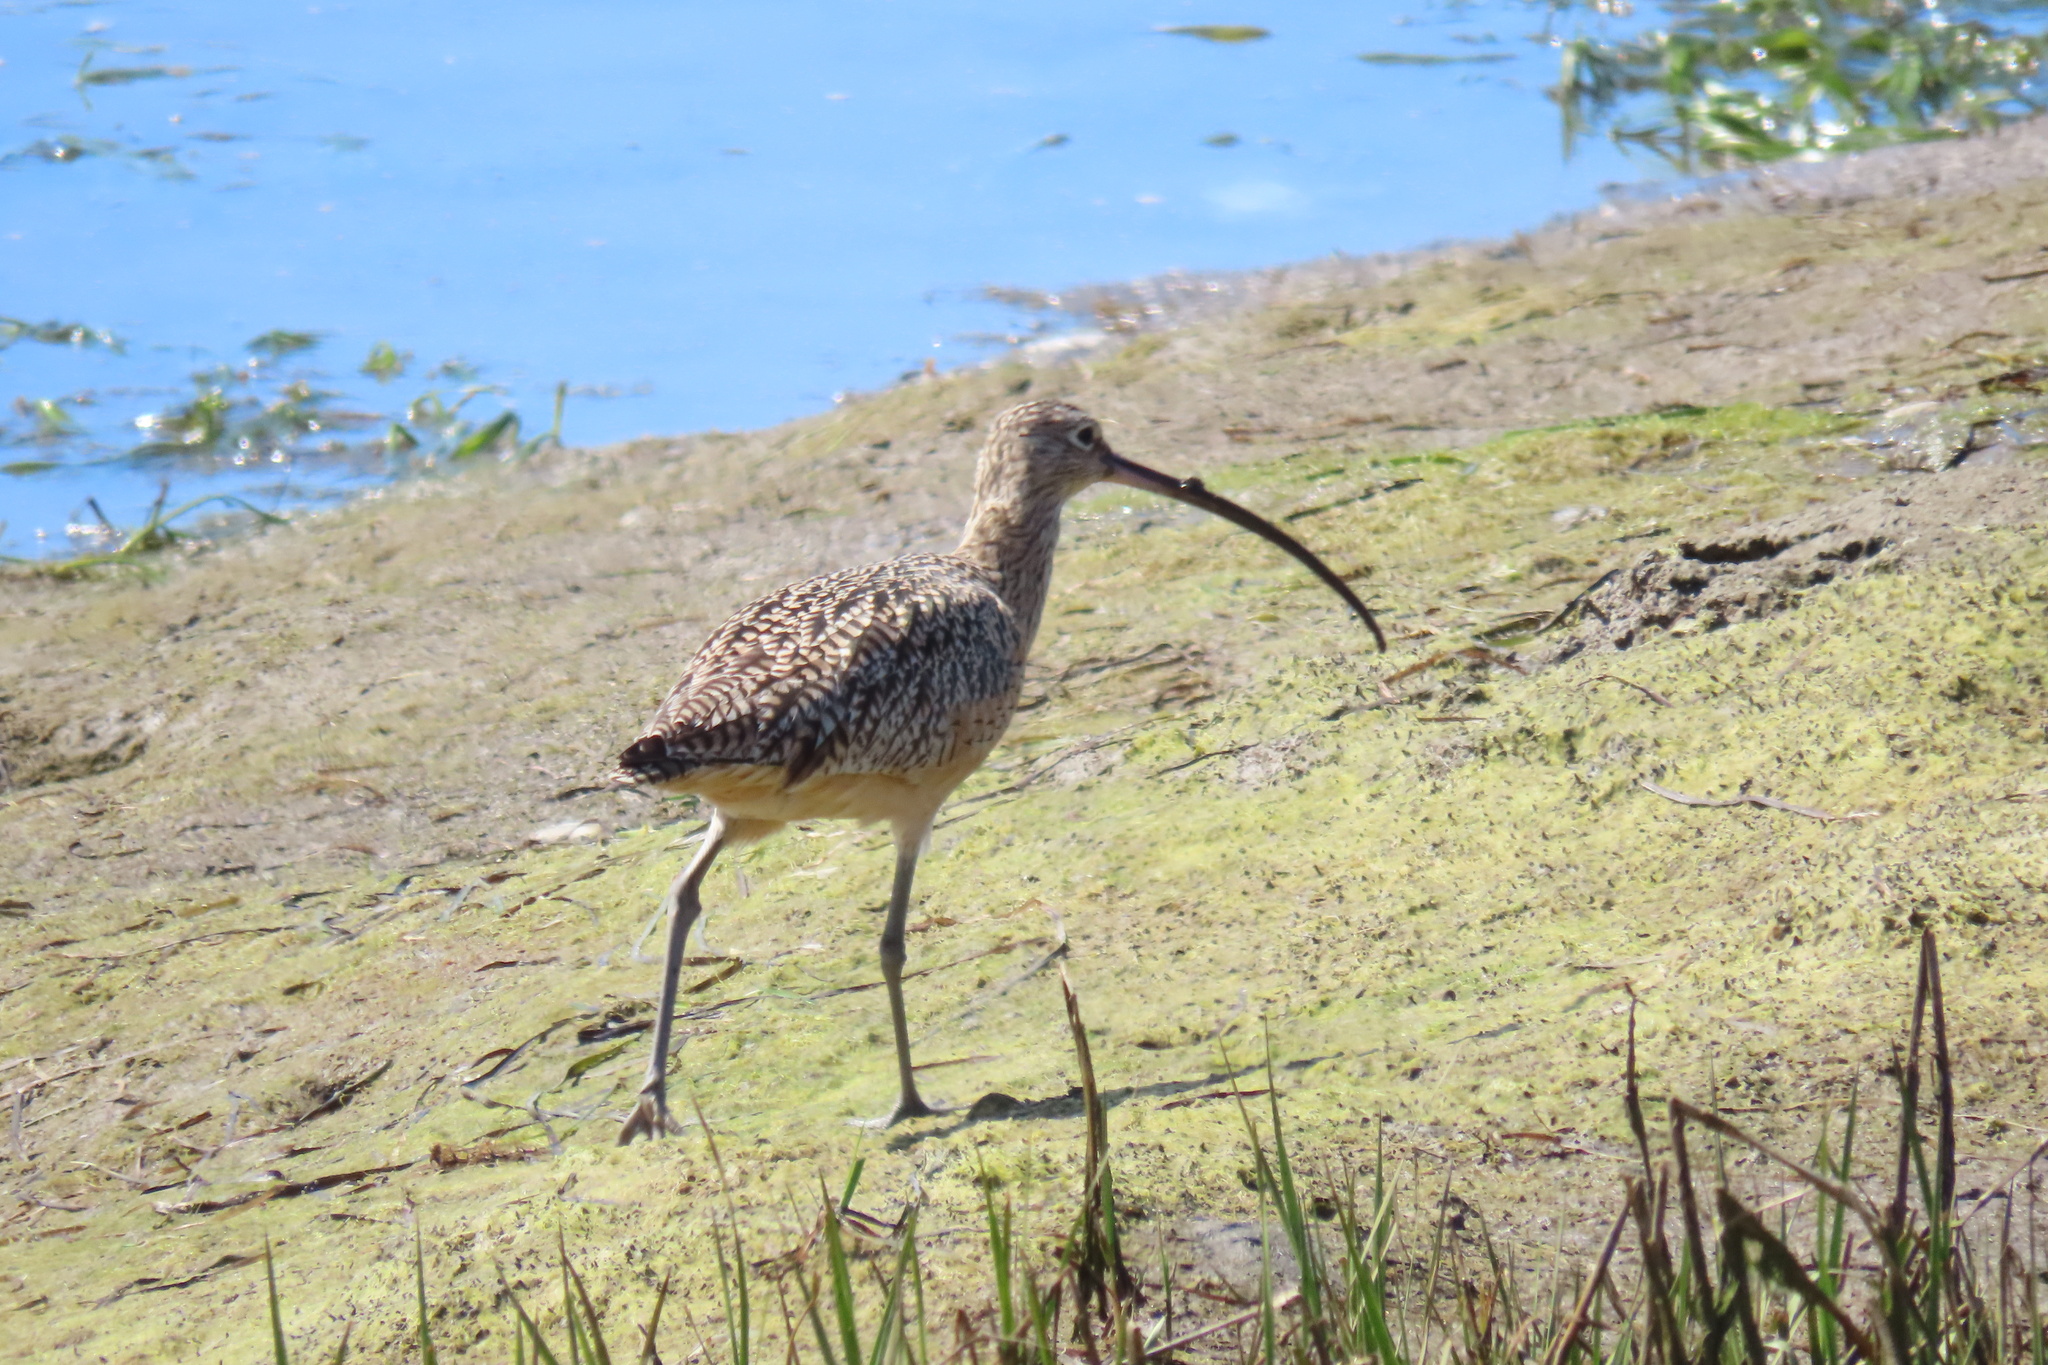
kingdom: Animalia
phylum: Chordata
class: Aves
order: Charadriiformes
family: Scolopacidae
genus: Numenius
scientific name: Numenius americanus
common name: Long-billed curlew
